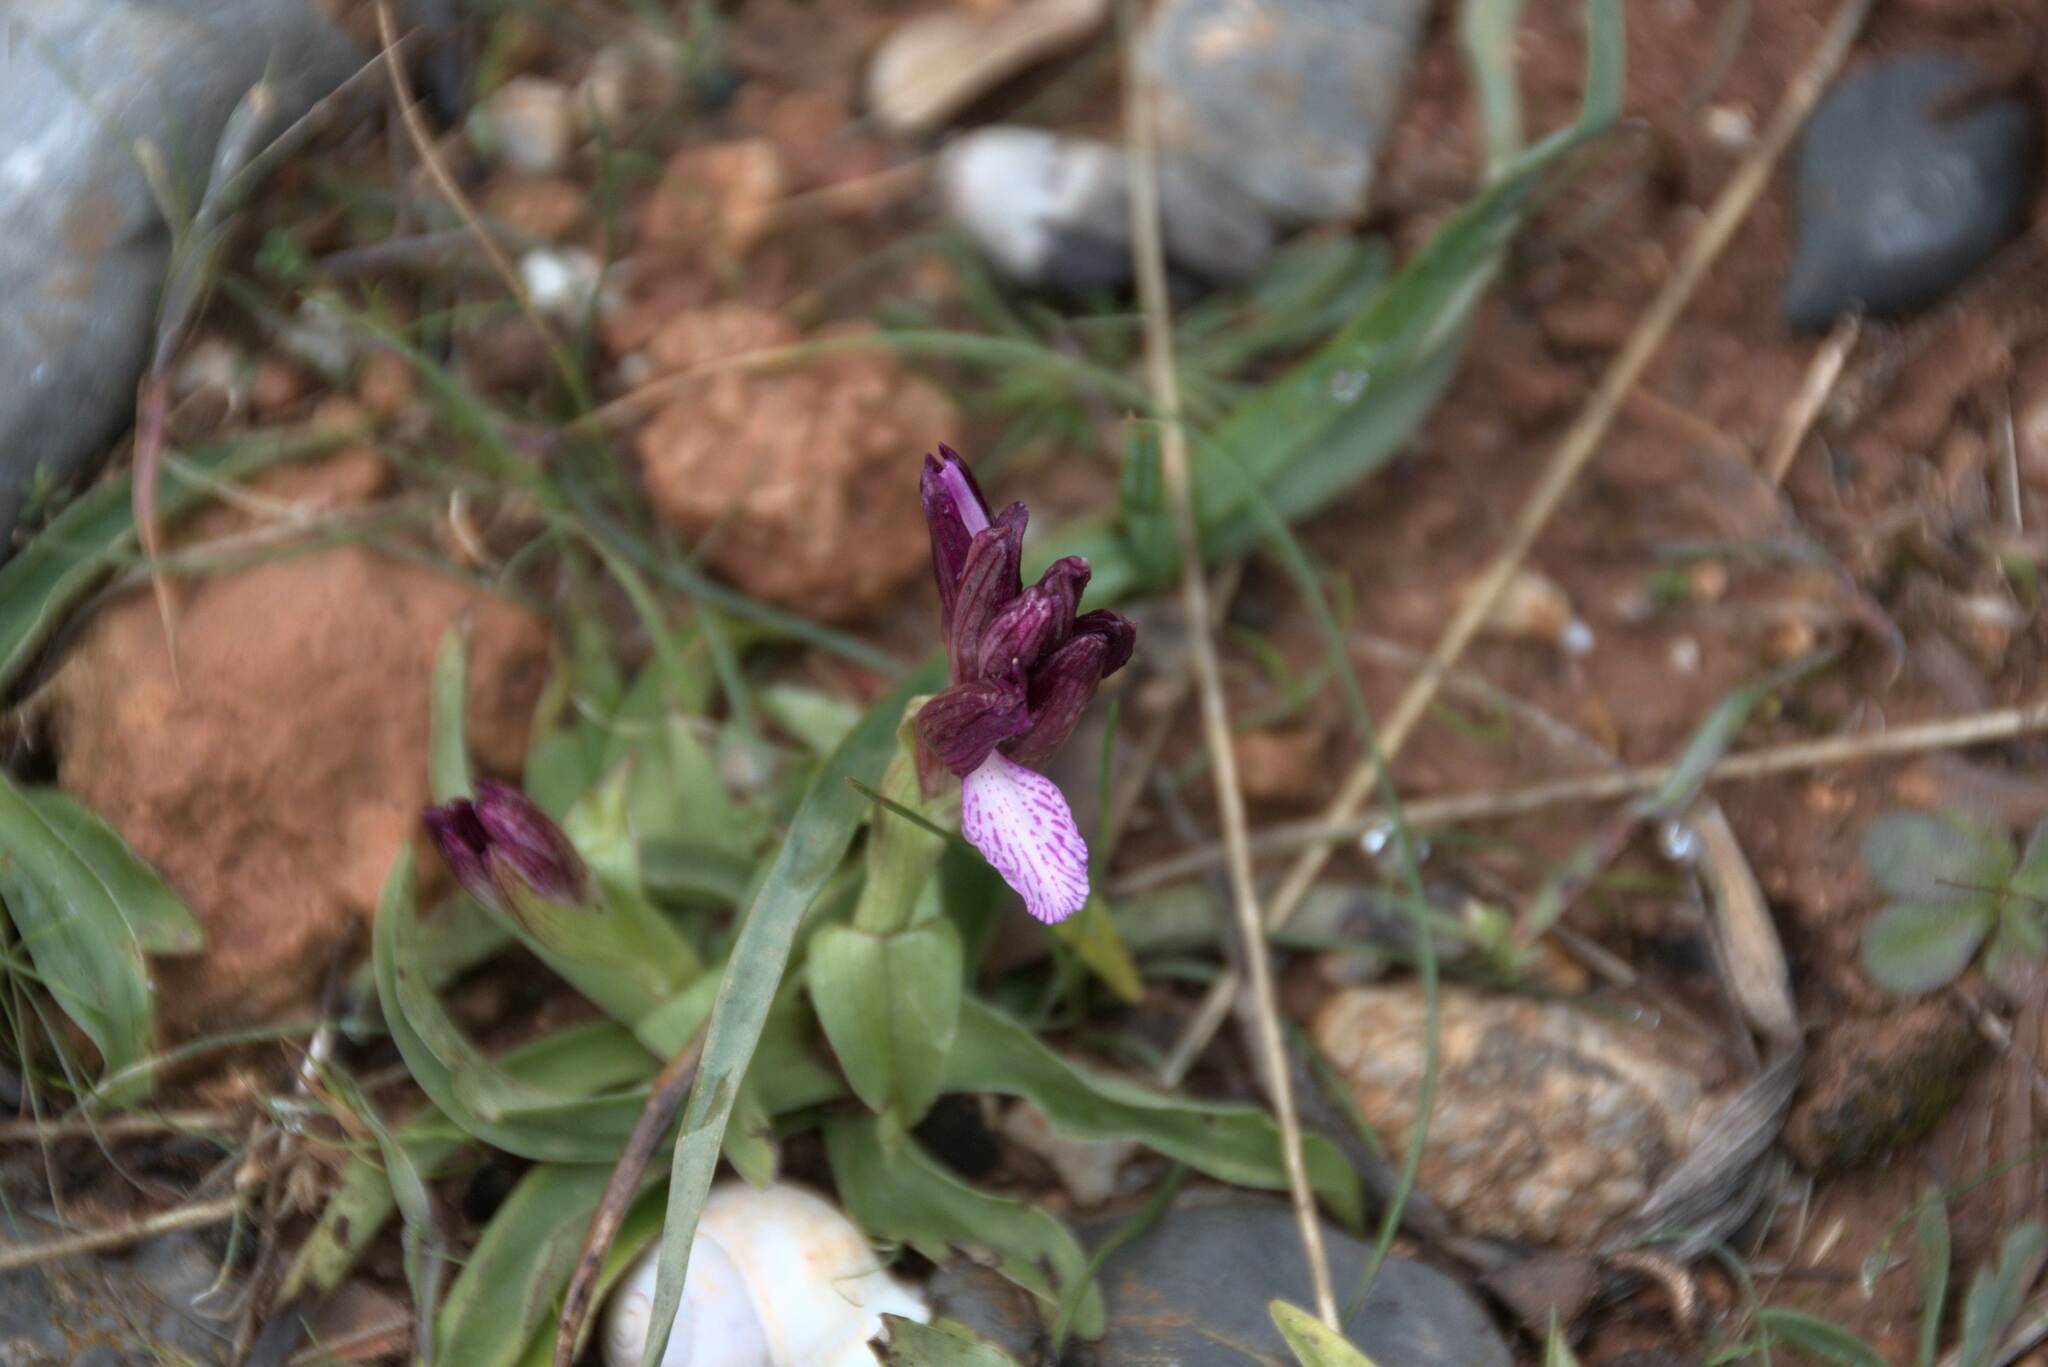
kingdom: Plantae
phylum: Tracheophyta
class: Liliopsida
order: Asparagales
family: Orchidaceae
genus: Anacamptis
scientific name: Anacamptis papilionacea
